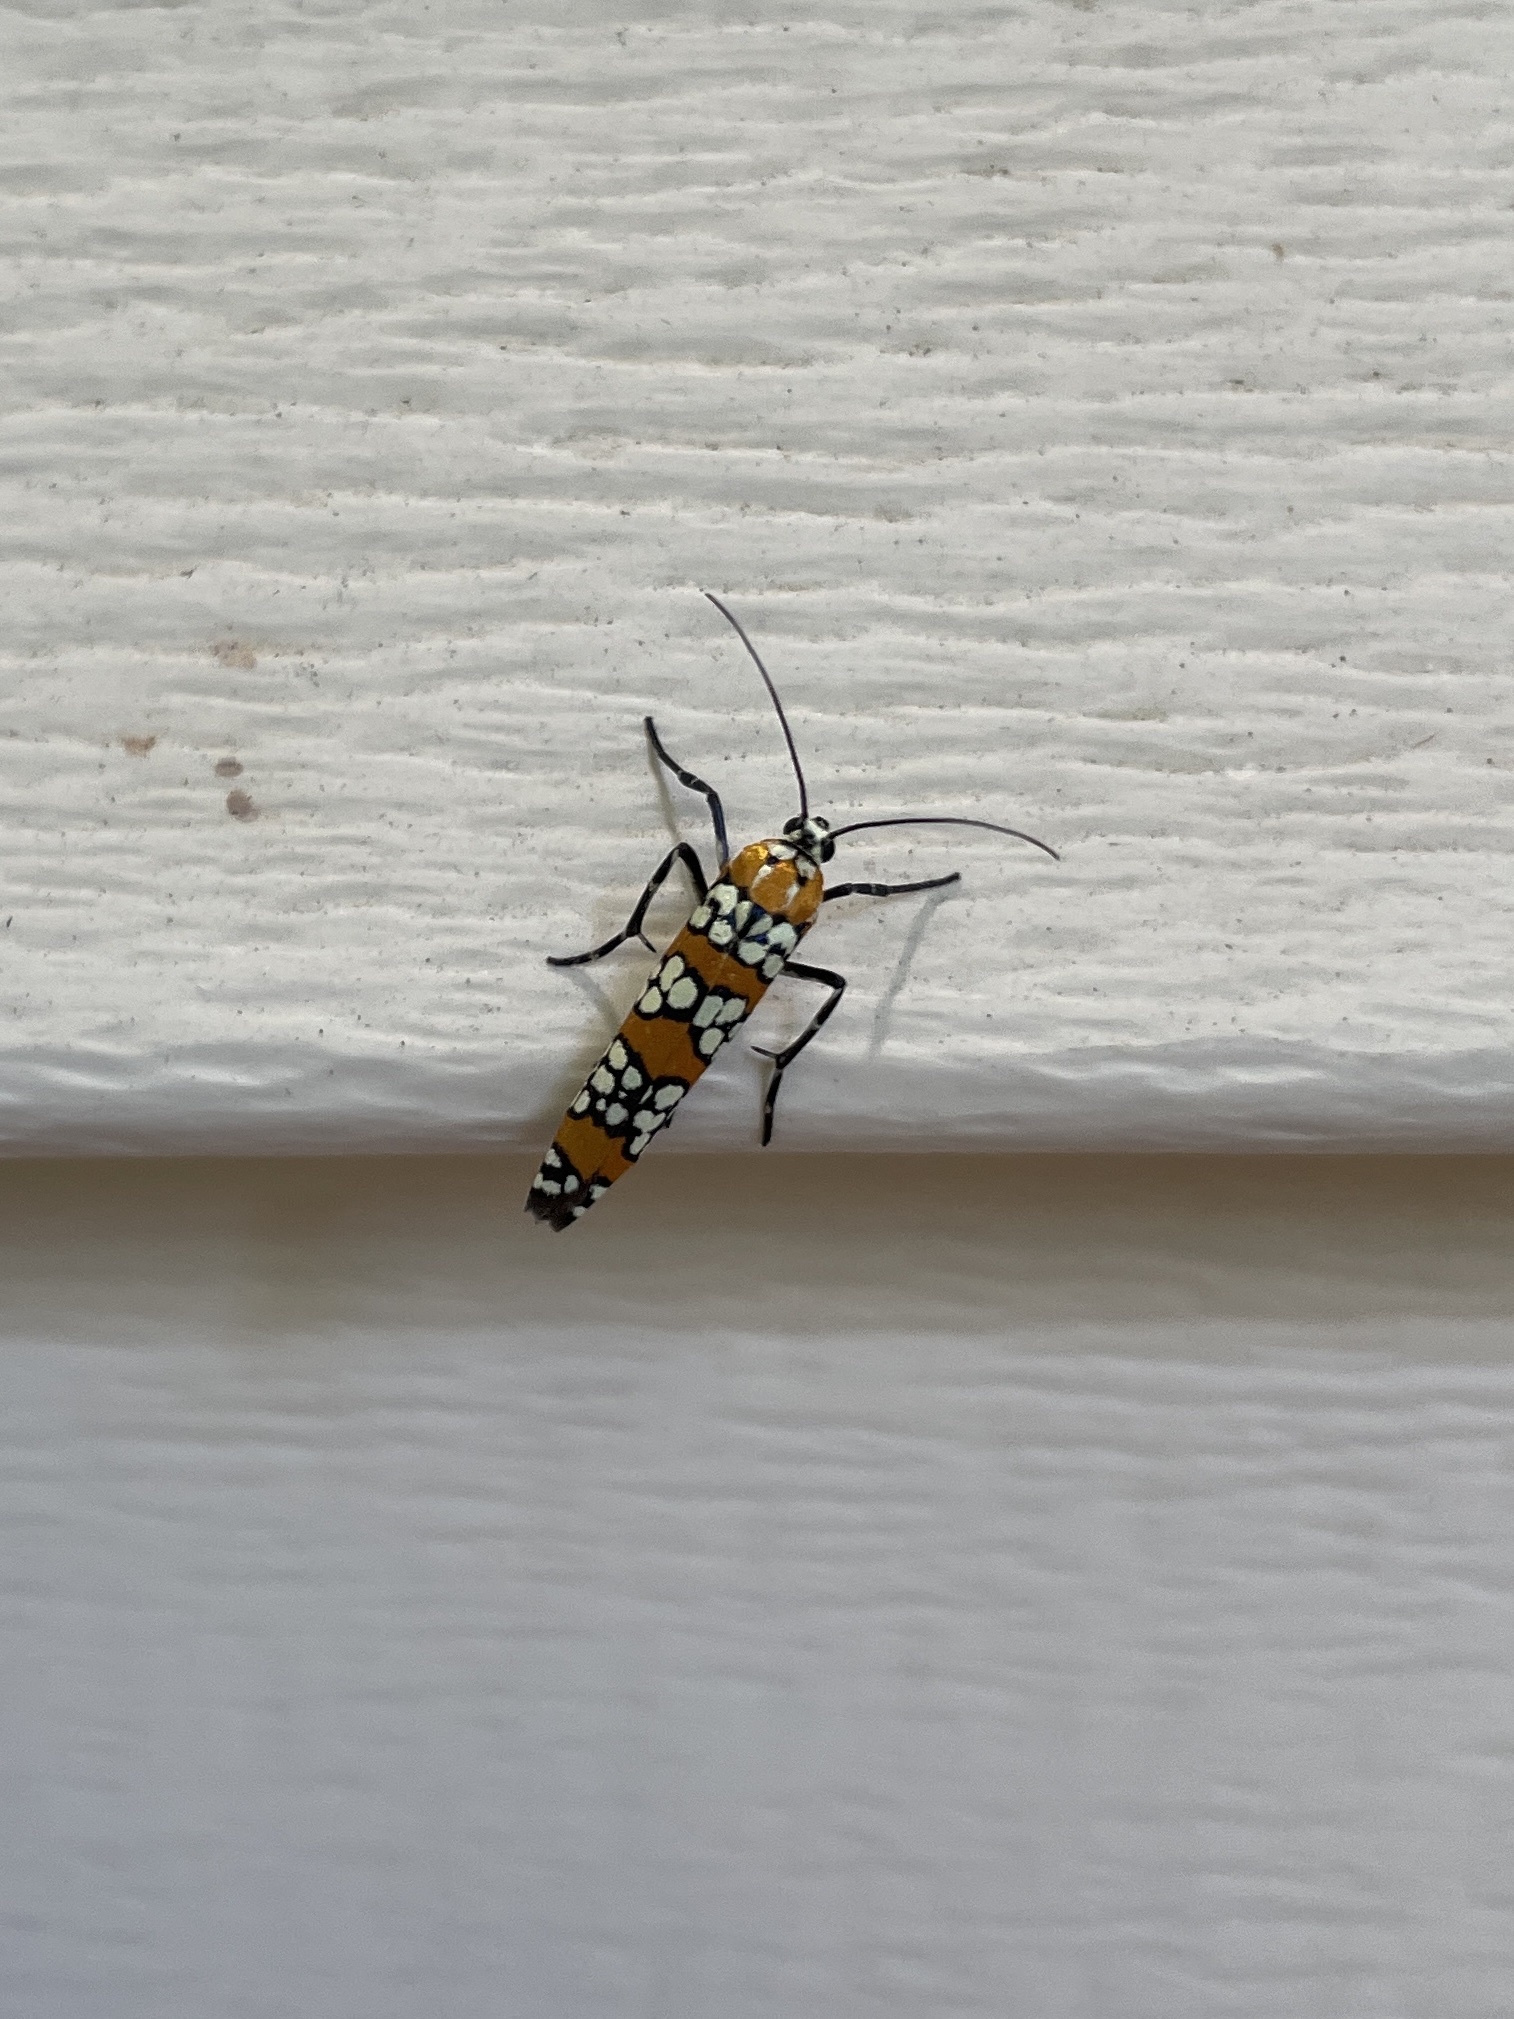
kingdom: Animalia
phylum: Arthropoda
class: Insecta
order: Lepidoptera
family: Attevidae
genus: Atteva
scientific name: Atteva punctella
